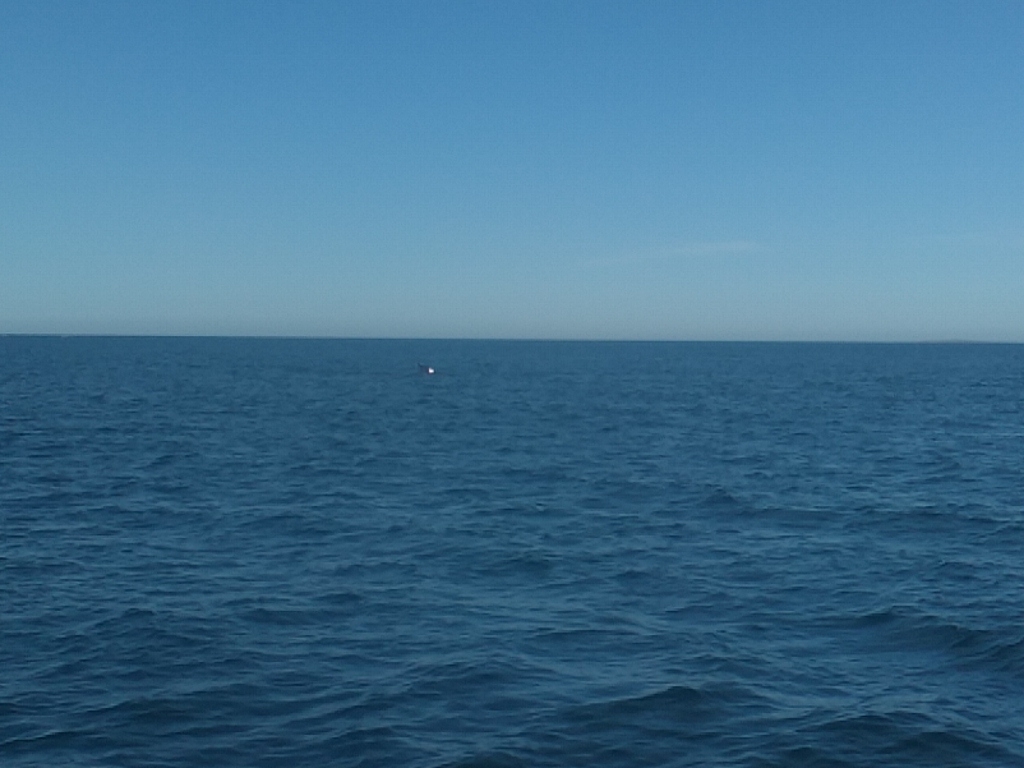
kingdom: Animalia
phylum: Chordata
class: Mammalia
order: Cetacea
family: Balaenopteridae
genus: Balaenoptera
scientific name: Balaenoptera physalus
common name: Fin whale
